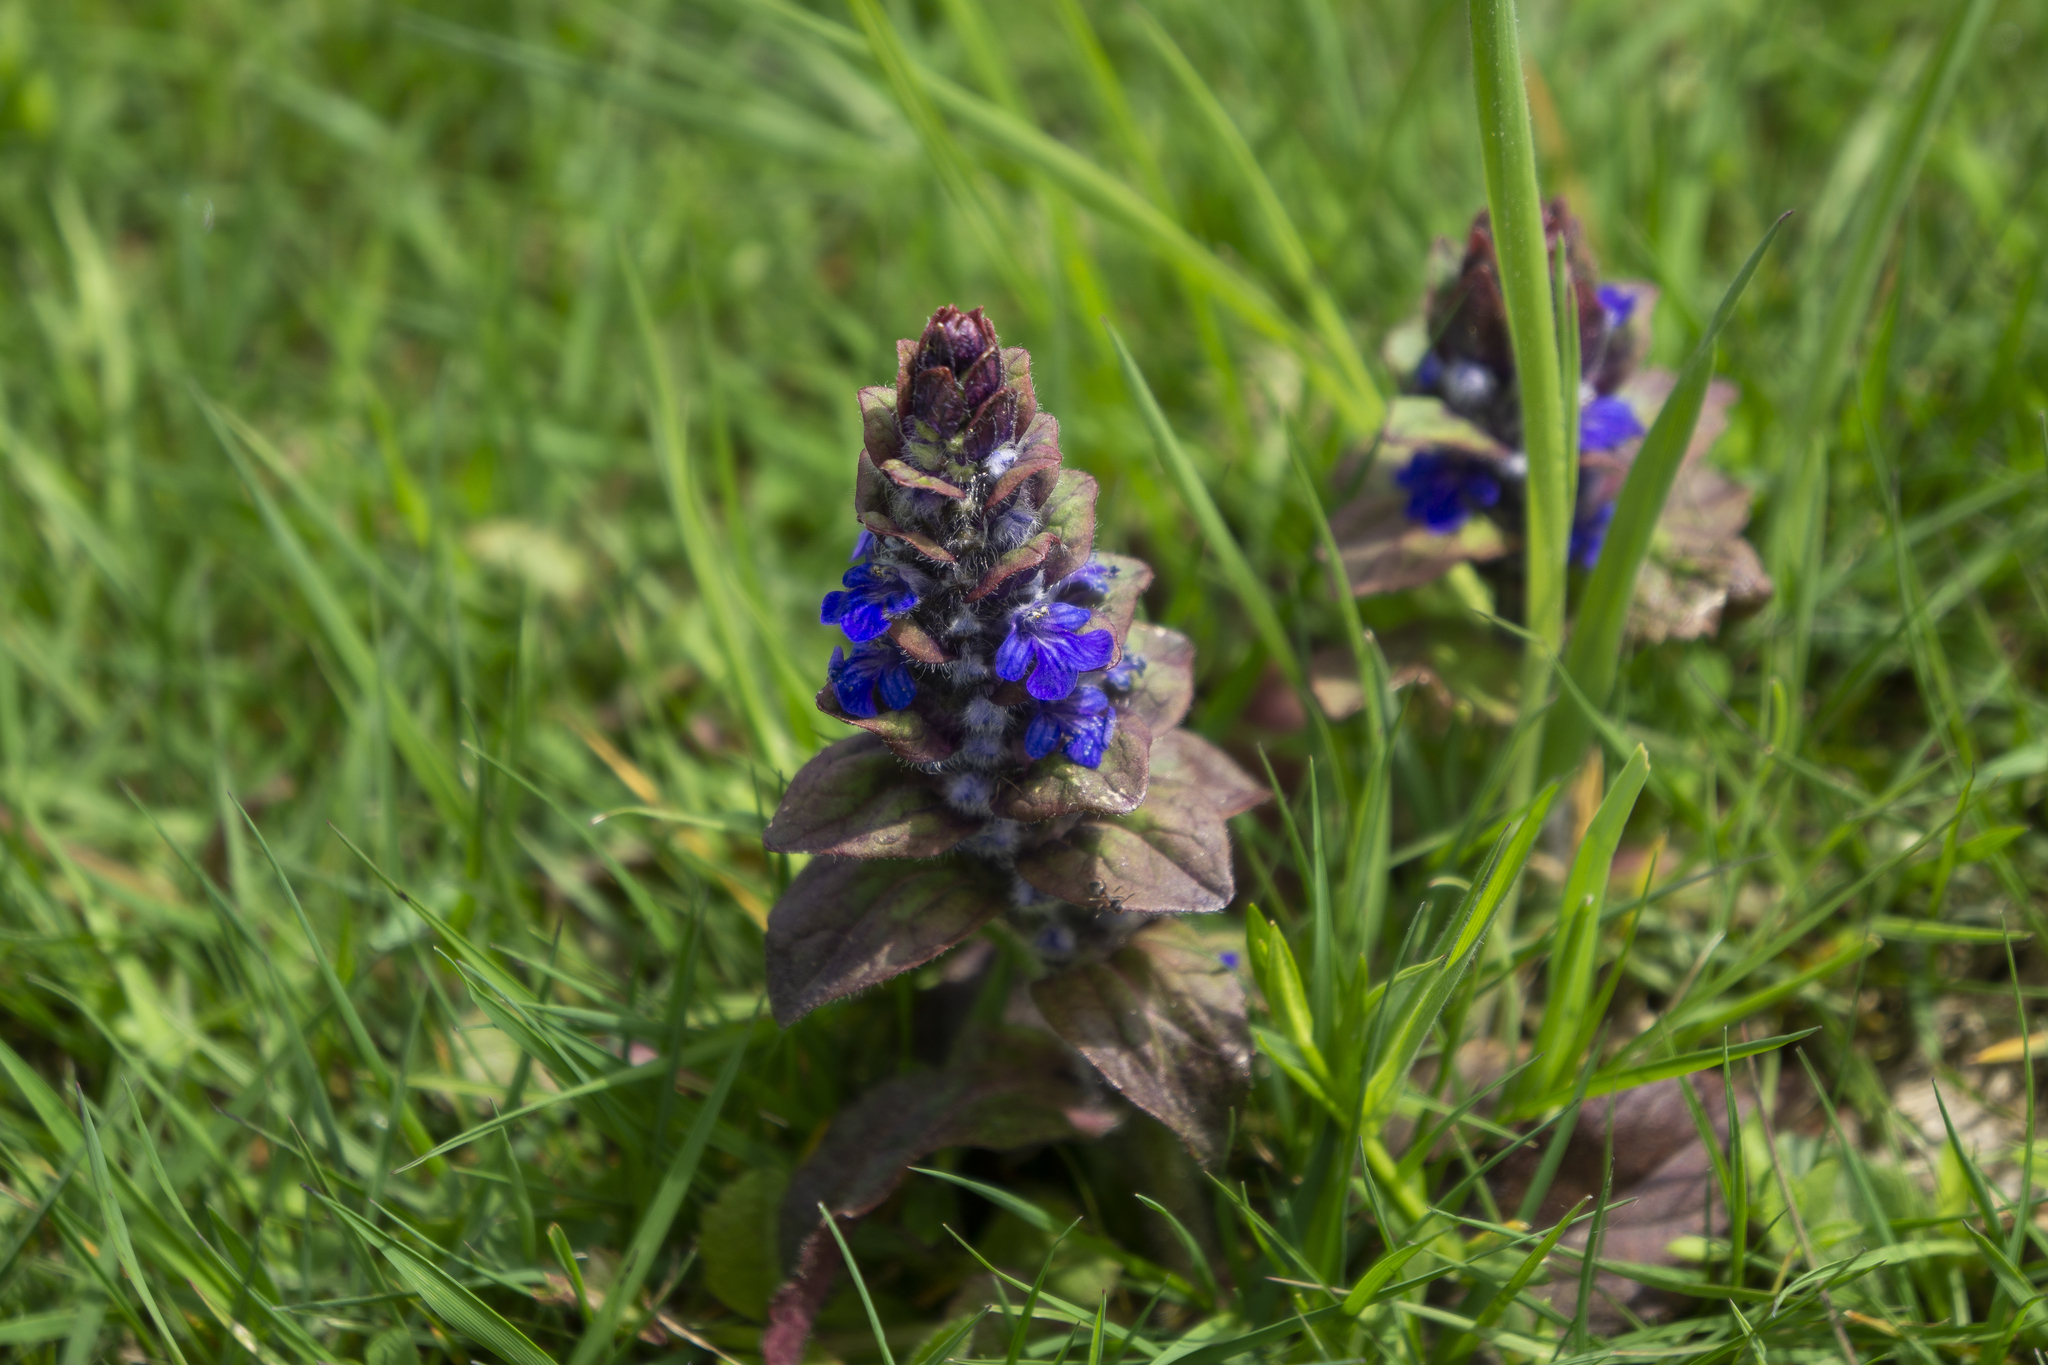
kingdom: Plantae
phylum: Tracheophyta
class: Magnoliopsida
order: Lamiales
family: Lamiaceae
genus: Ajuga
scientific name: Ajuga reptans
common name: Bugle
